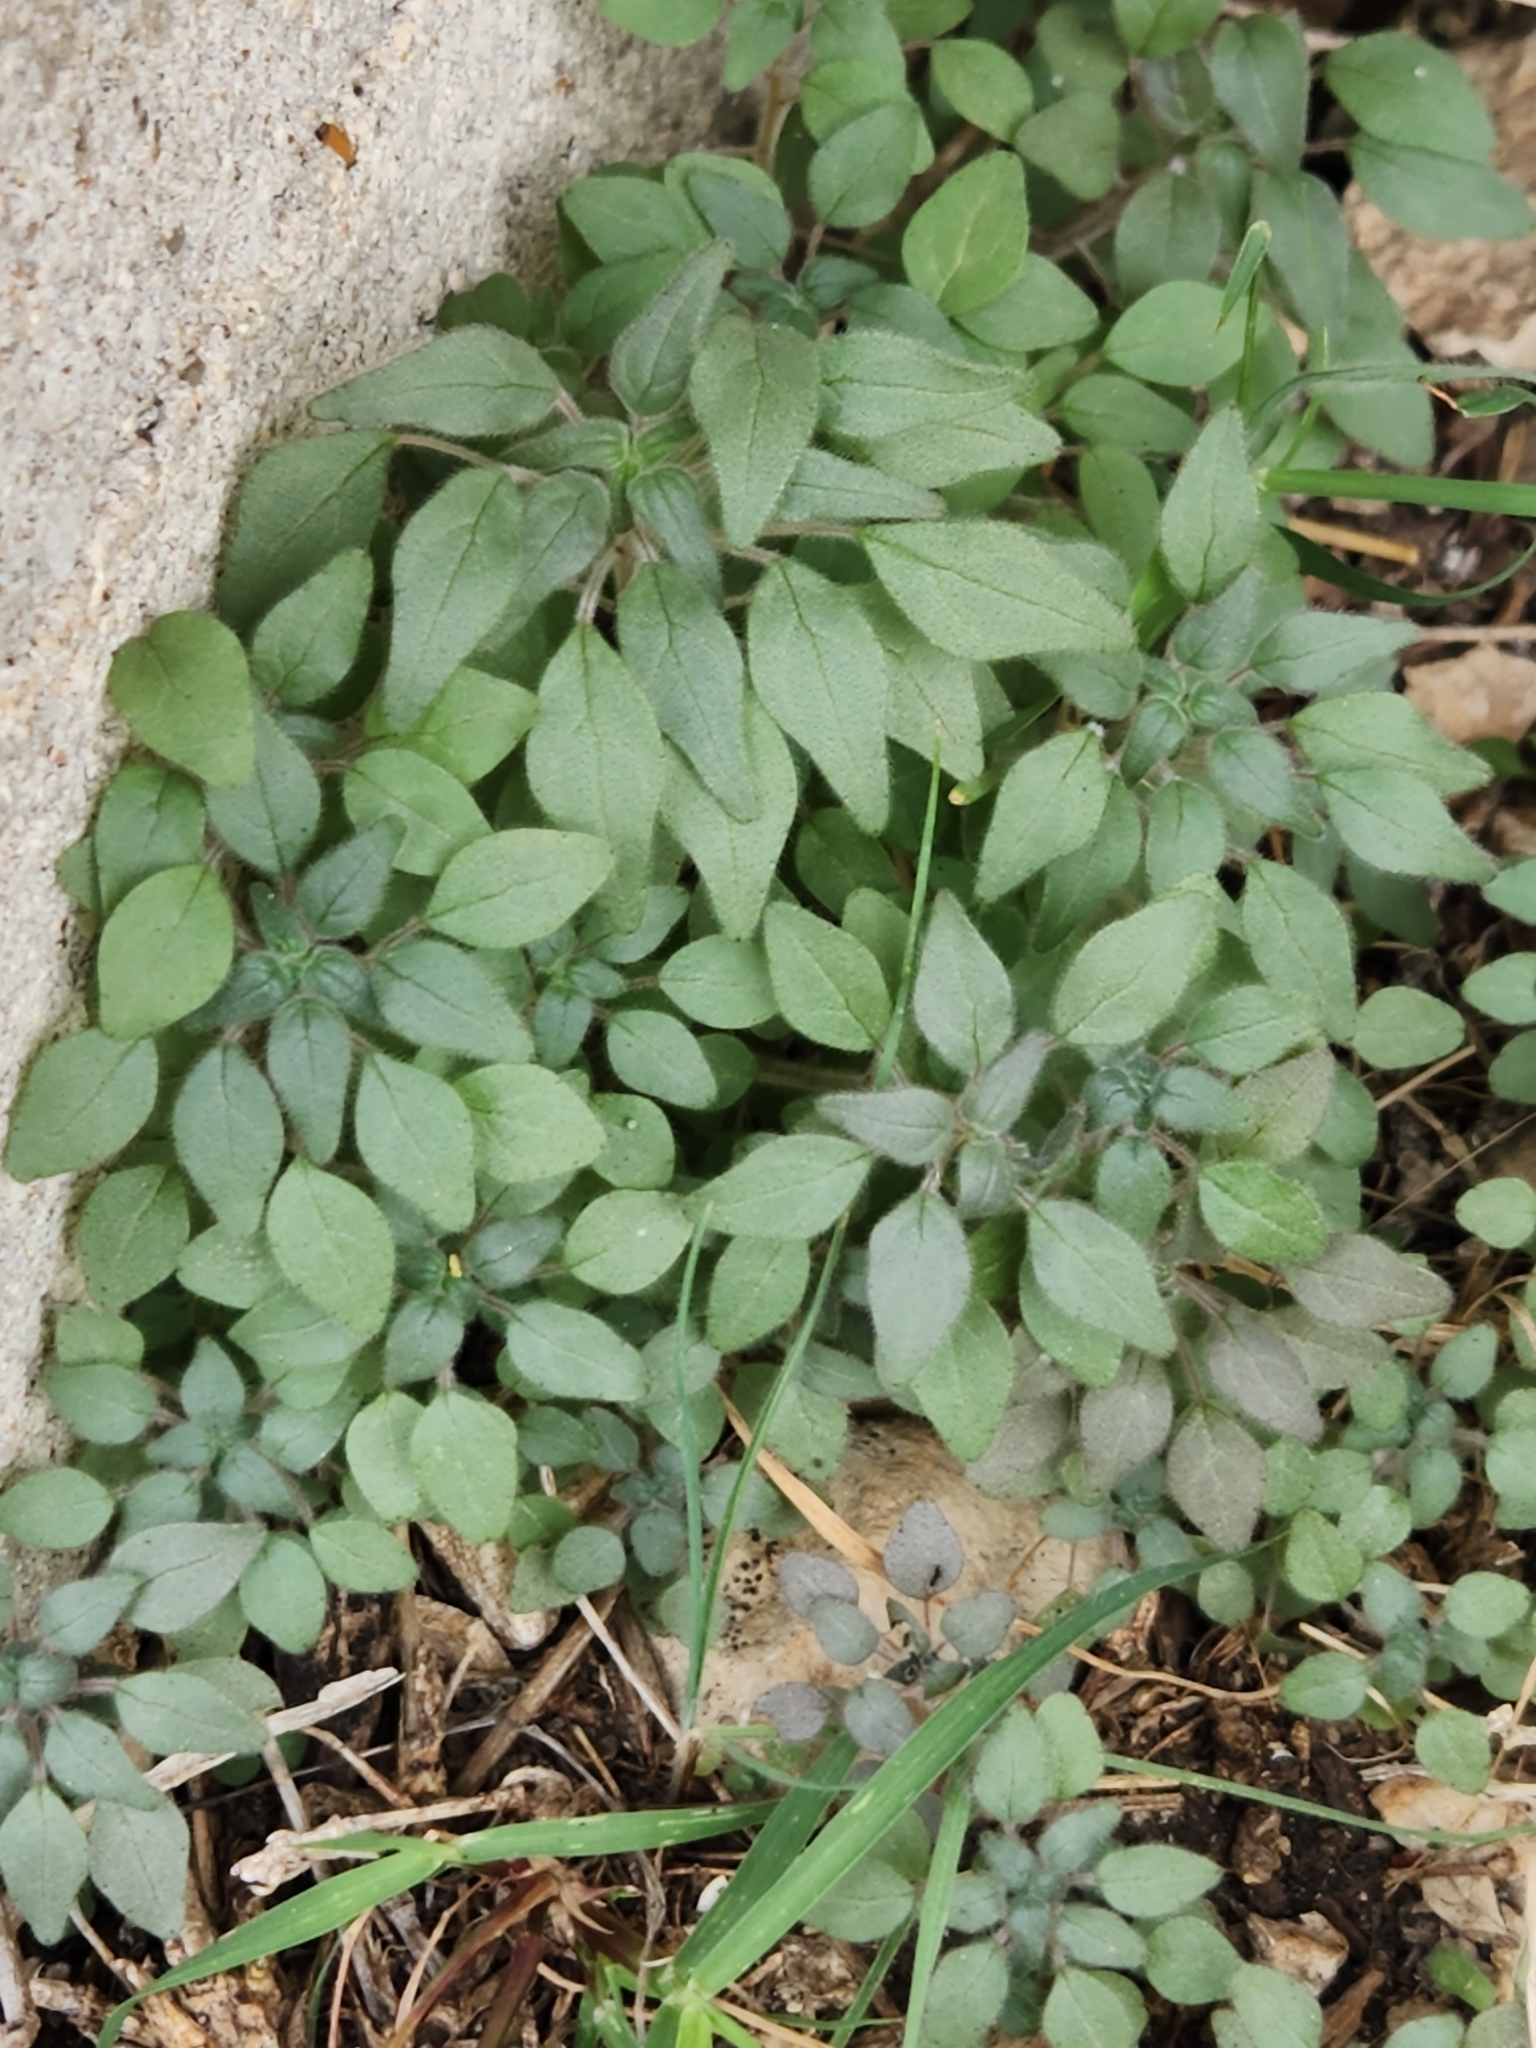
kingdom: Plantae
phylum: Tracheophyta
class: Magnoliopsida
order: Rosales
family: Urticaceae
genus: Parietaria
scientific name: Parietaria pensylvanica
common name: Pennsylvania pellitory
